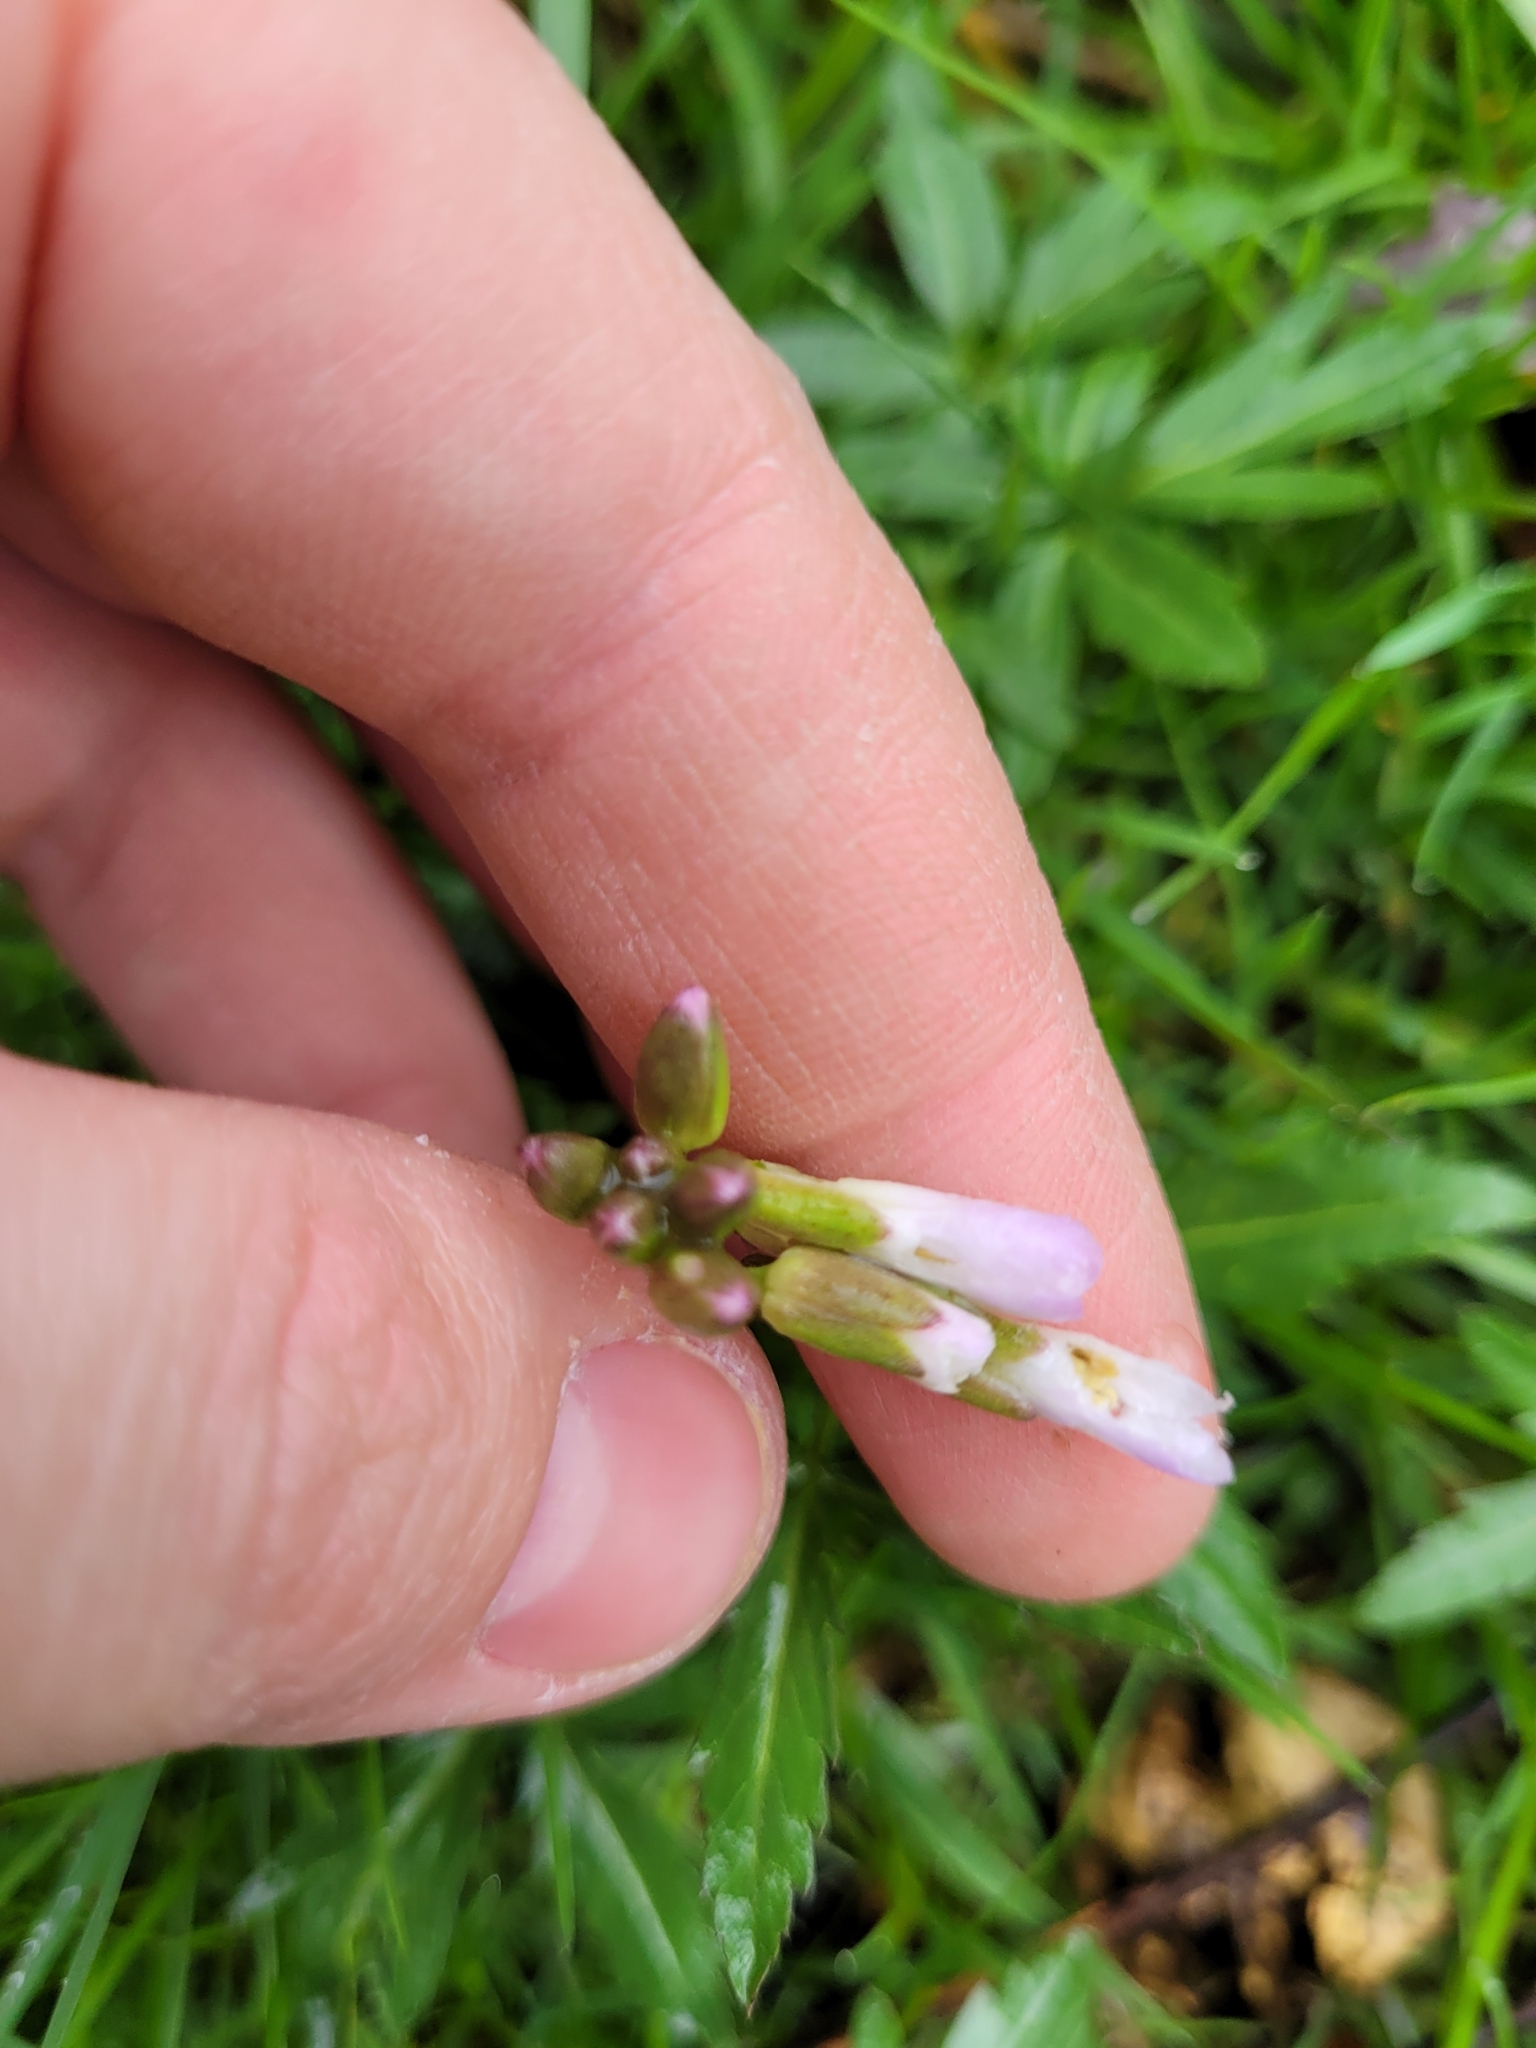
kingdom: Plantae
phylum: Tracheophyta
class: Magnoliopsida
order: Brassicales
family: Brassicaceae
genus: Cardamine
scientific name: Cardamine concatenata
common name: Cut-leaf toothcup
